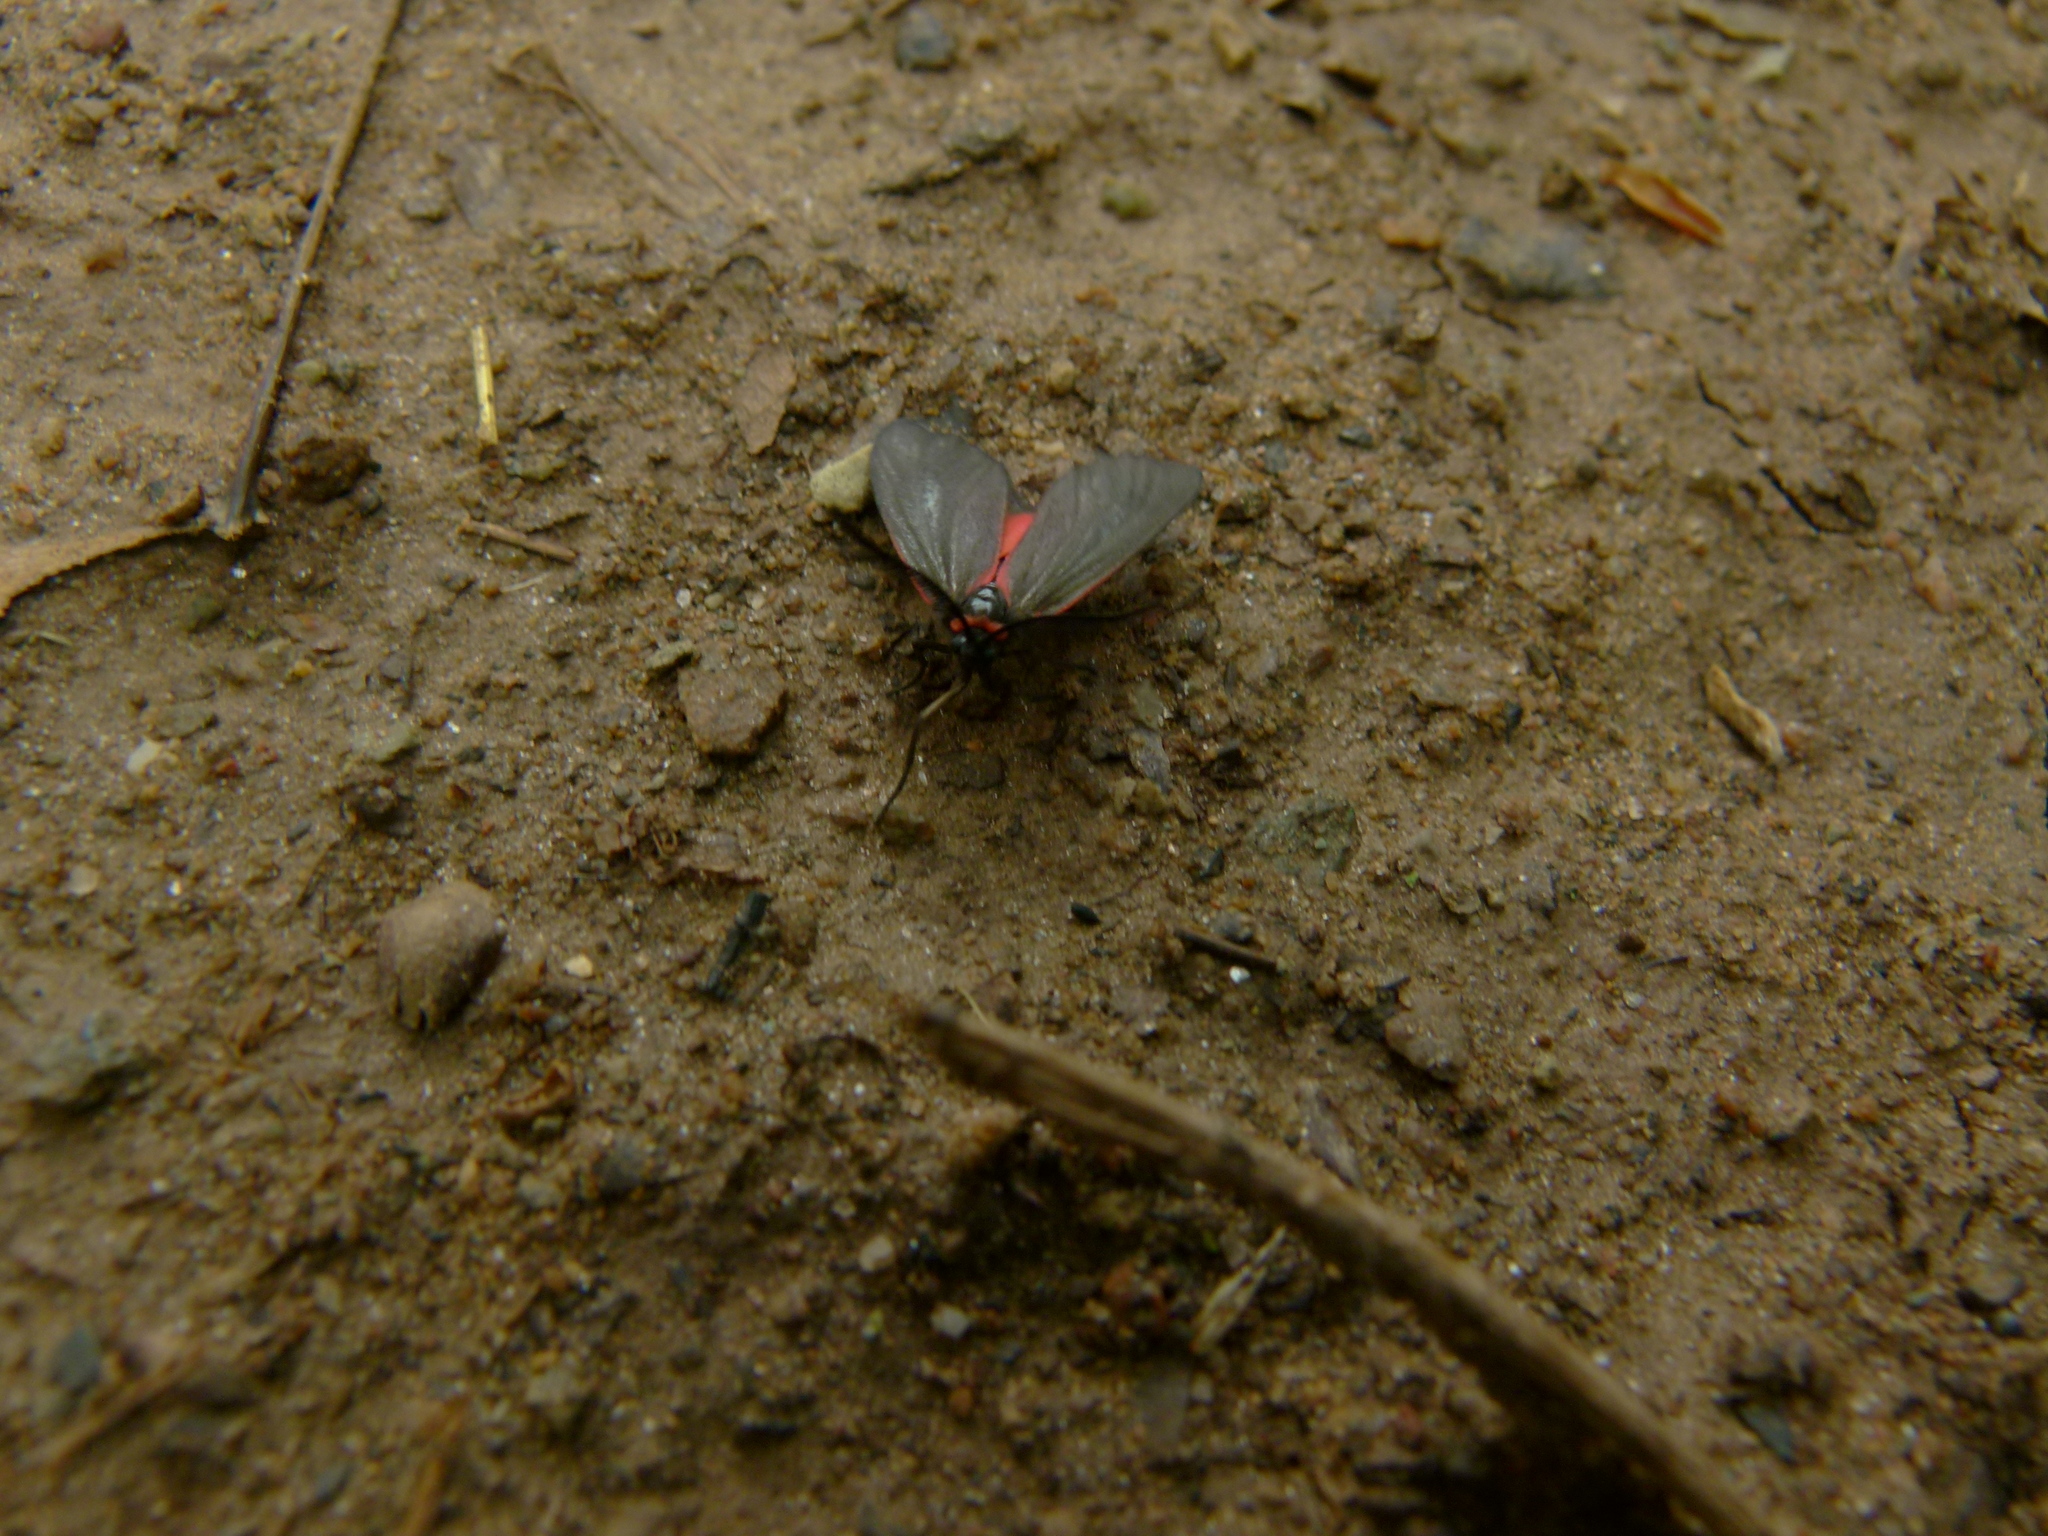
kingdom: Animalia
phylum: Arthropoda
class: Insecta
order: Lepidoptera
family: Zygaenidae
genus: Aglaope
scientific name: Aglaope infausta
